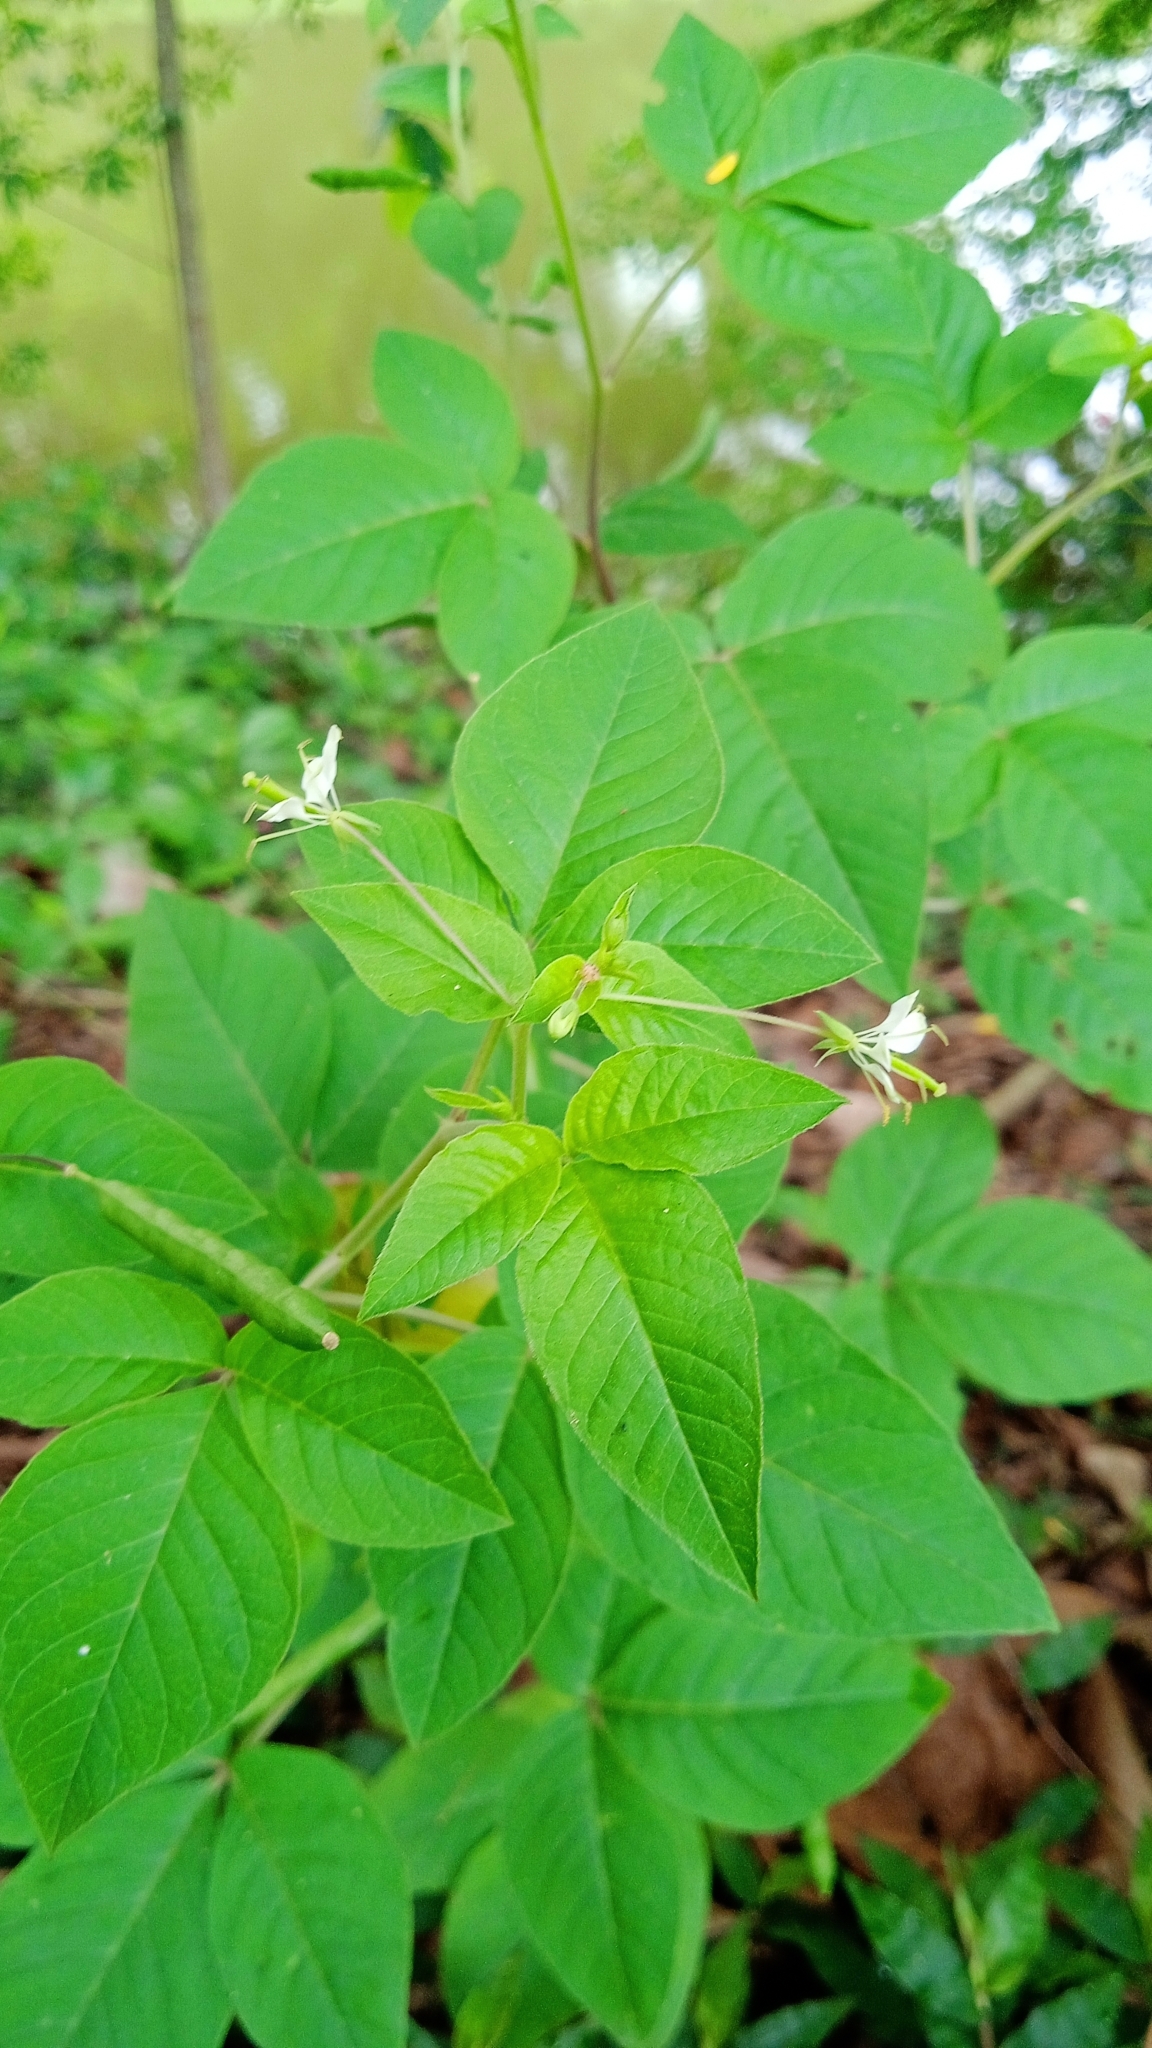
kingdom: Plantae
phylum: Tracheophyta
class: Magnoliopsida
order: Brassicales
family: Cleomaceae
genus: Tarenaya
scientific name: Tarenaya aculeata
